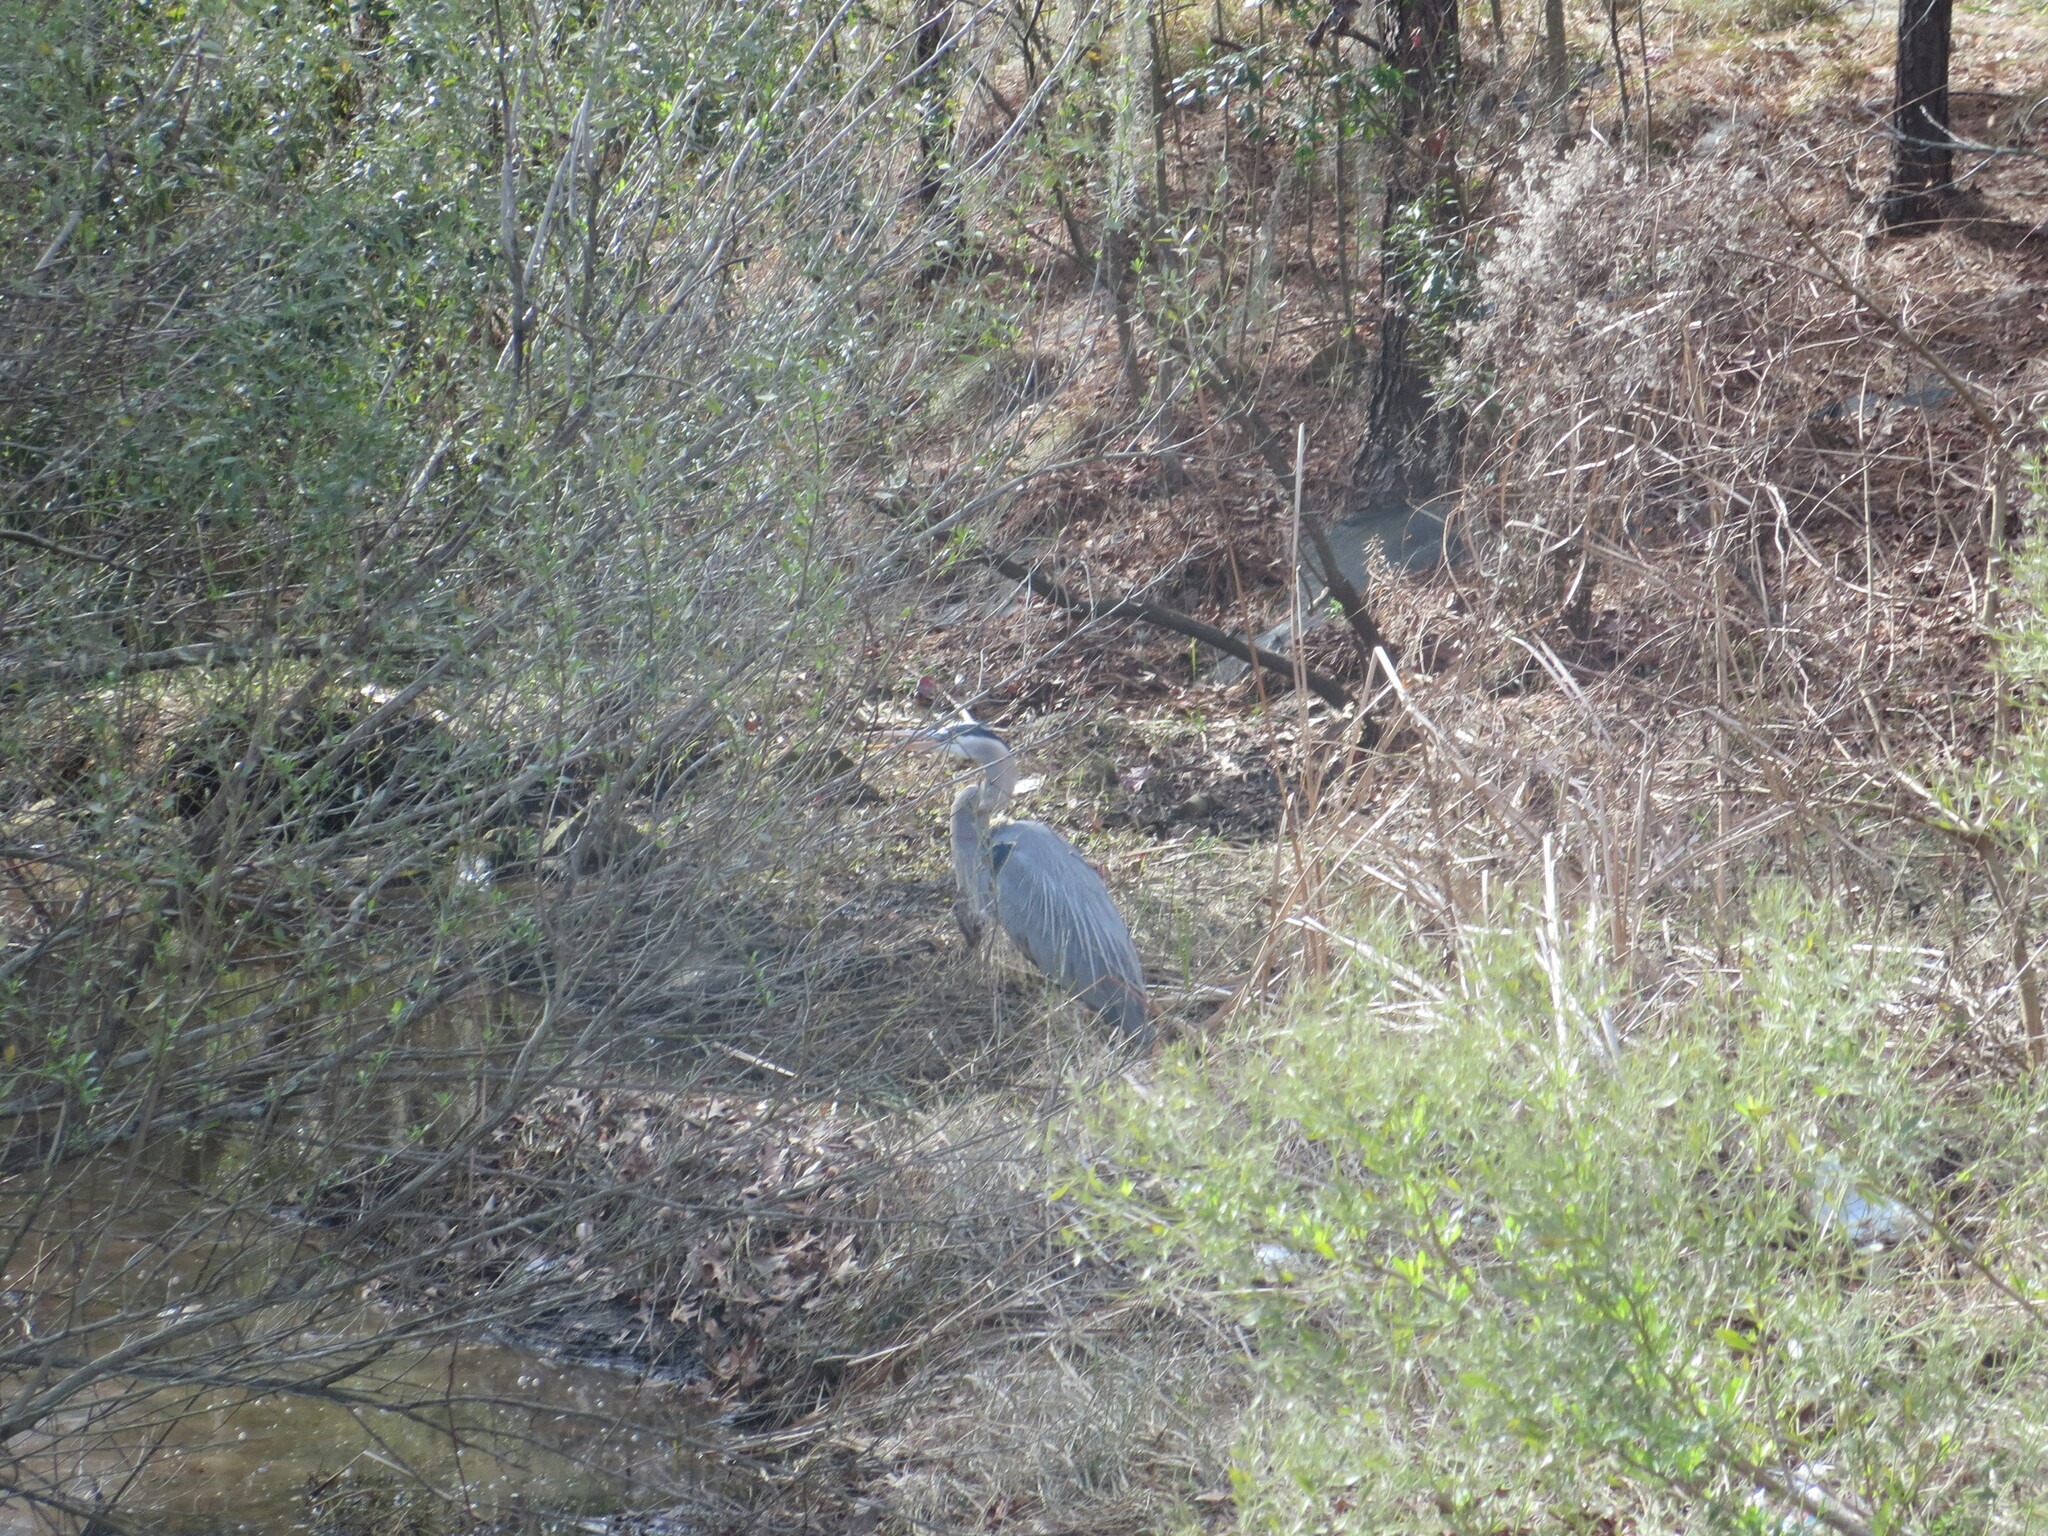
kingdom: Animalia
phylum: Chordata
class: Aves
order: Pelecaniformes
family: Ardeidae
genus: Ardea
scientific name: Ardea herodias
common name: Great blue heron
